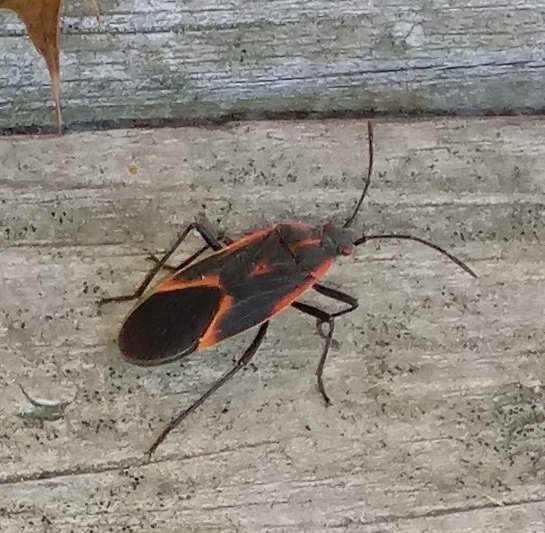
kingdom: Animalia
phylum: Arthropoda
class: Insecta
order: Hemiptera
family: Rhopalidae
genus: Boisea
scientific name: Boisea trivittata
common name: Boxelder bug
